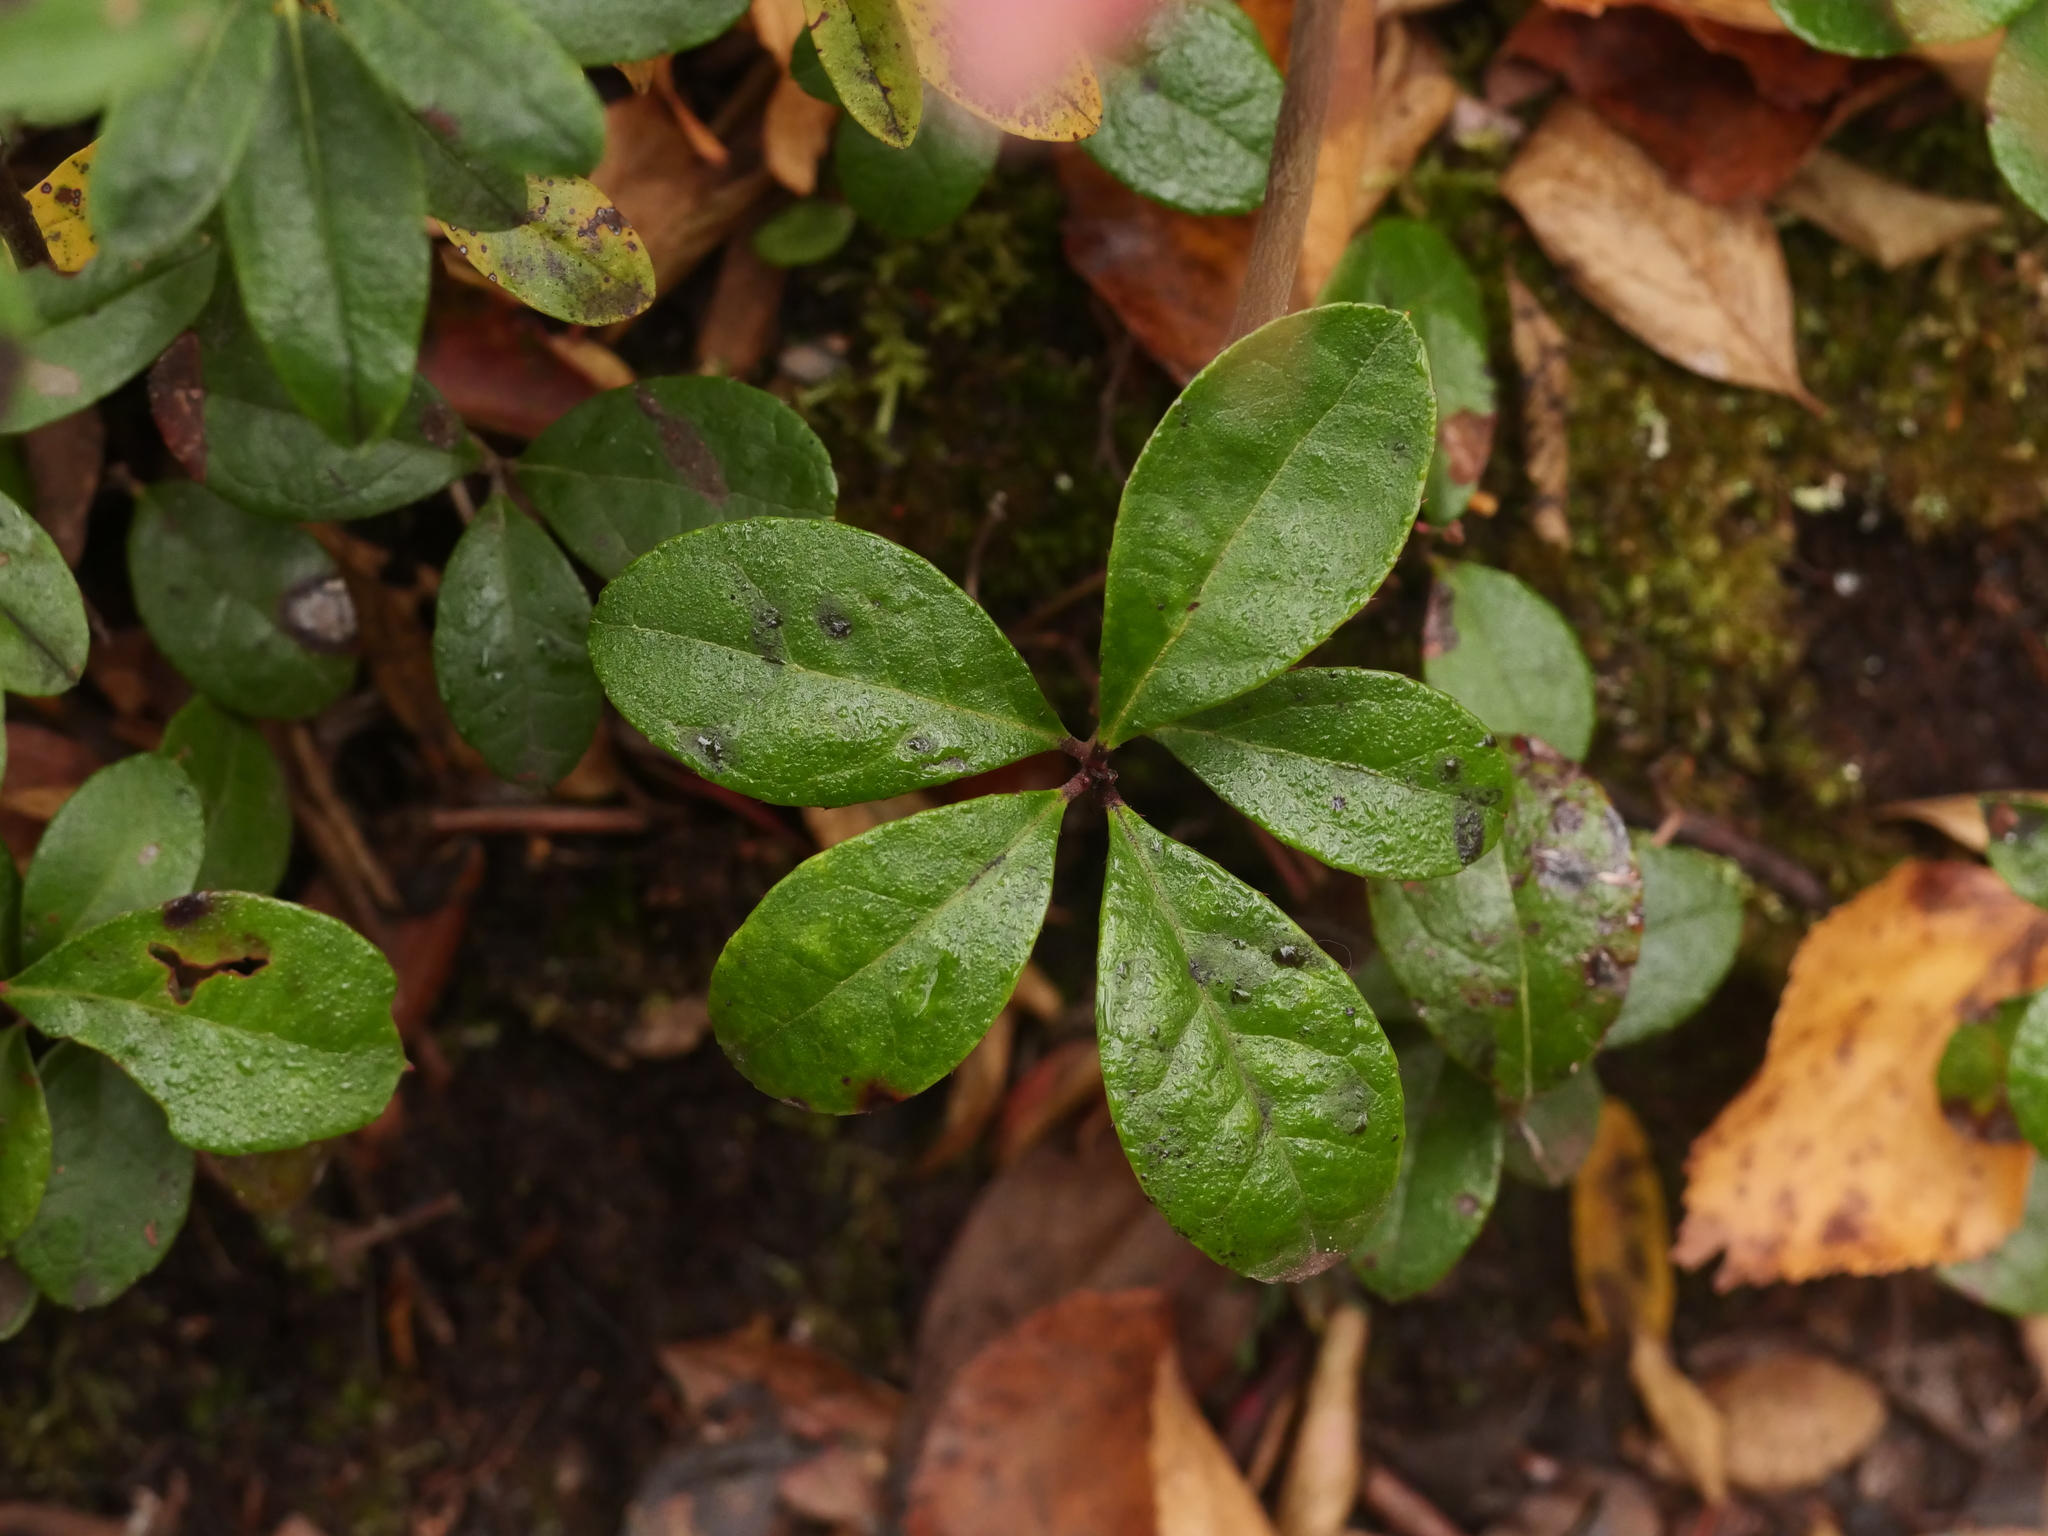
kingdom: Plantae
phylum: Tracheophyta
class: Magnoliopsida
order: Ericales
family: Ericaceae
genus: Gaultheria
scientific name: Gaultheria procumbens
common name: Checkerberry
